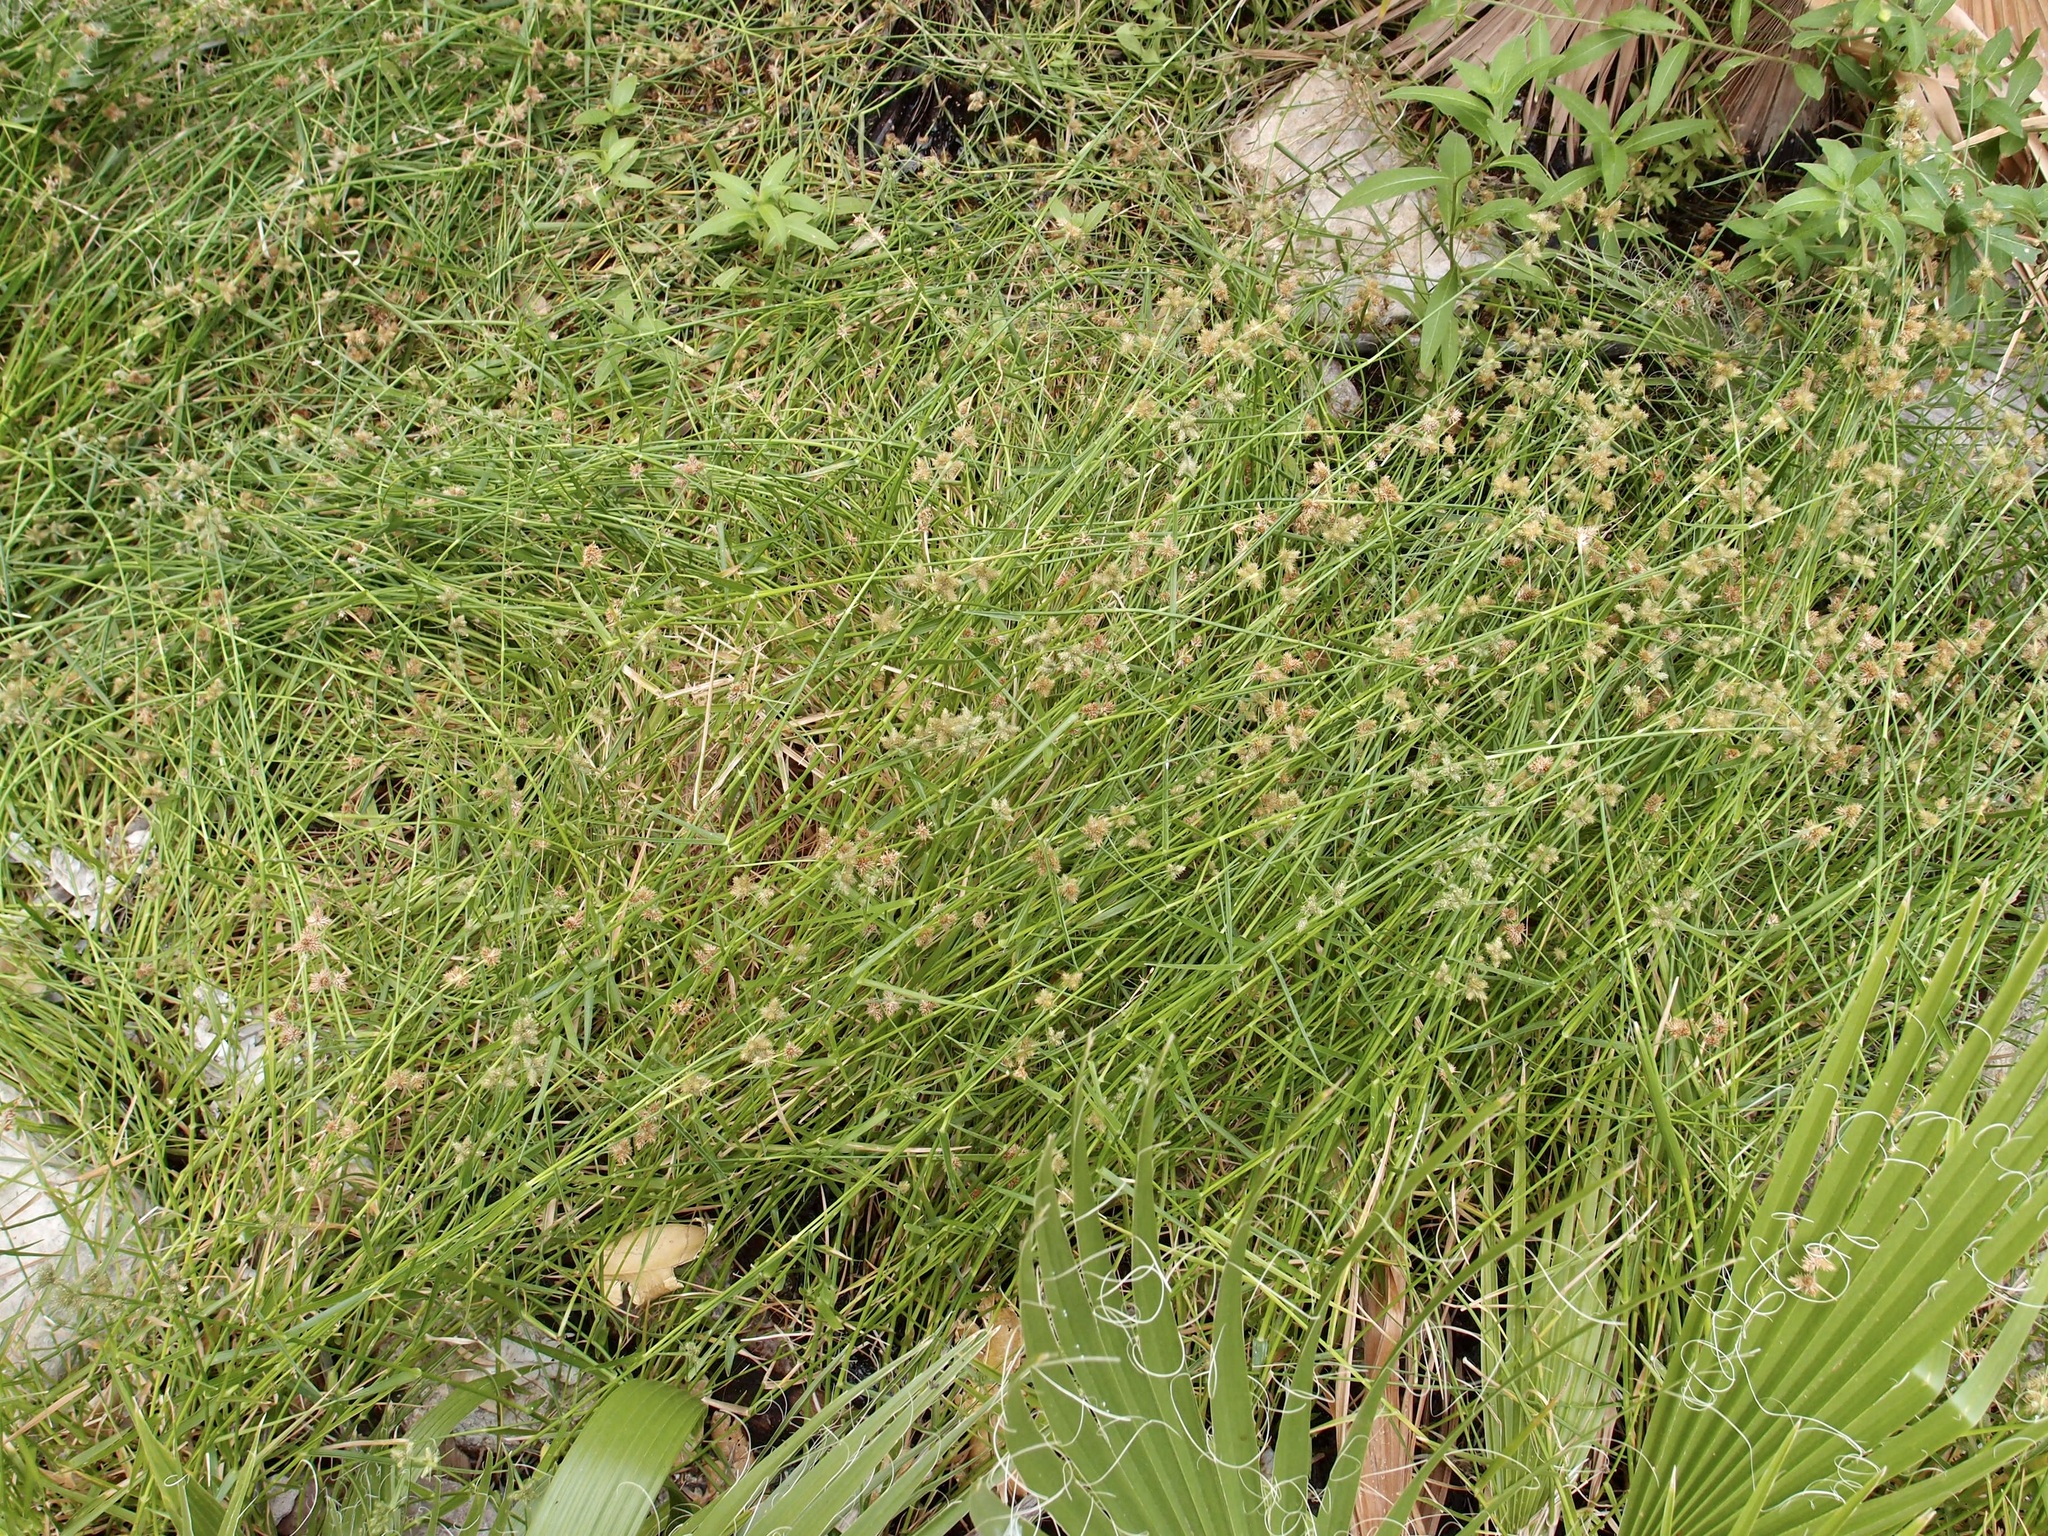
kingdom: Plantae
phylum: Tracheophyta
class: Liliopsida
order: Poales
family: Cyperaceae
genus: Fuirena
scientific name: Fuirena simplex
